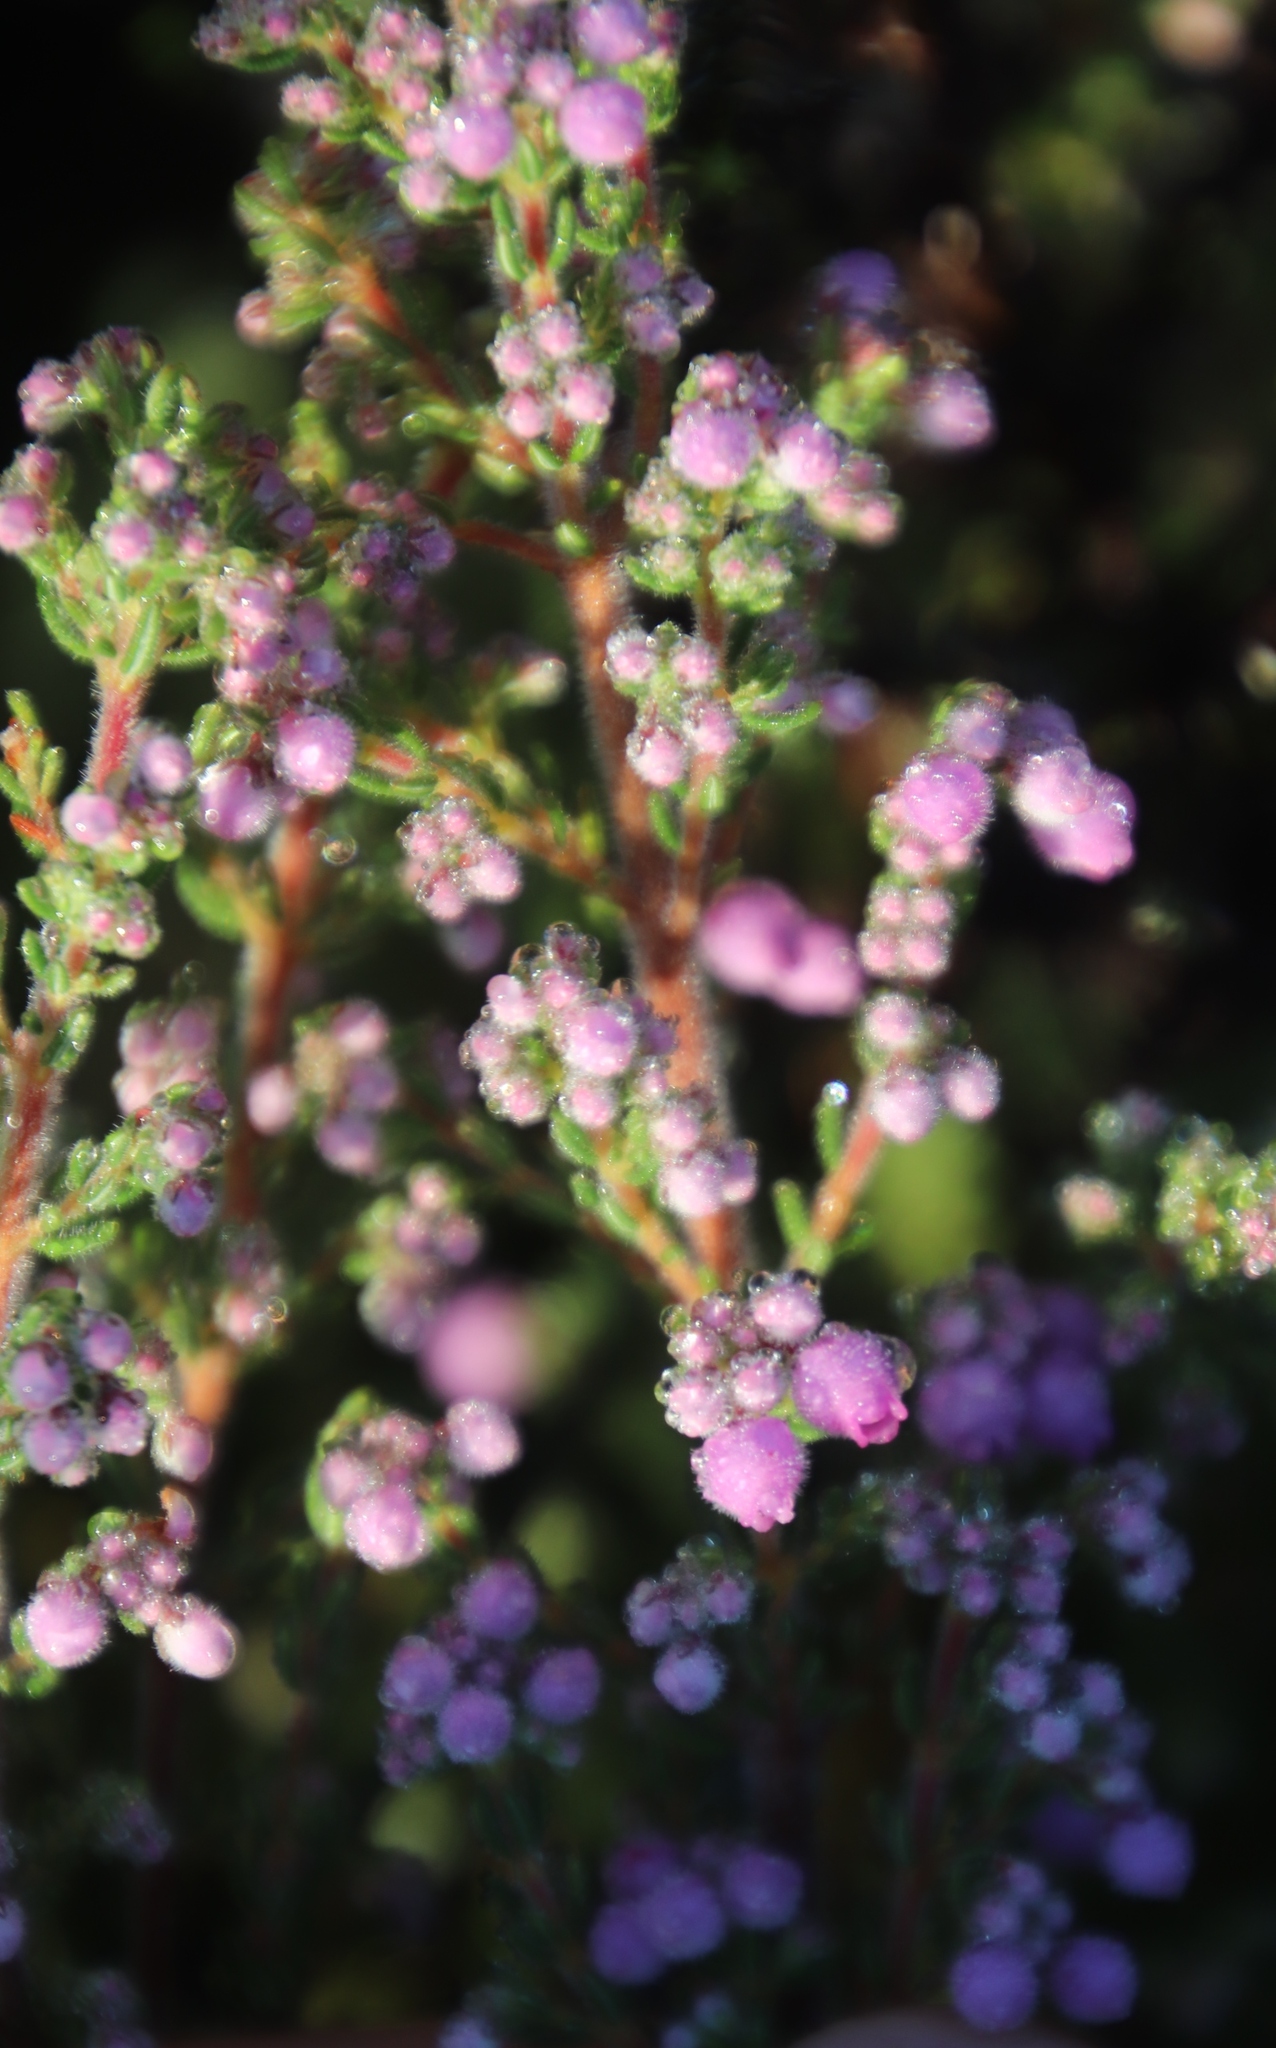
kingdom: Plantae
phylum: Tracheophyta
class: Magnoliopsida
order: Ericales
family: Ericaceae
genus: Erica
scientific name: Erica hirtiflora
